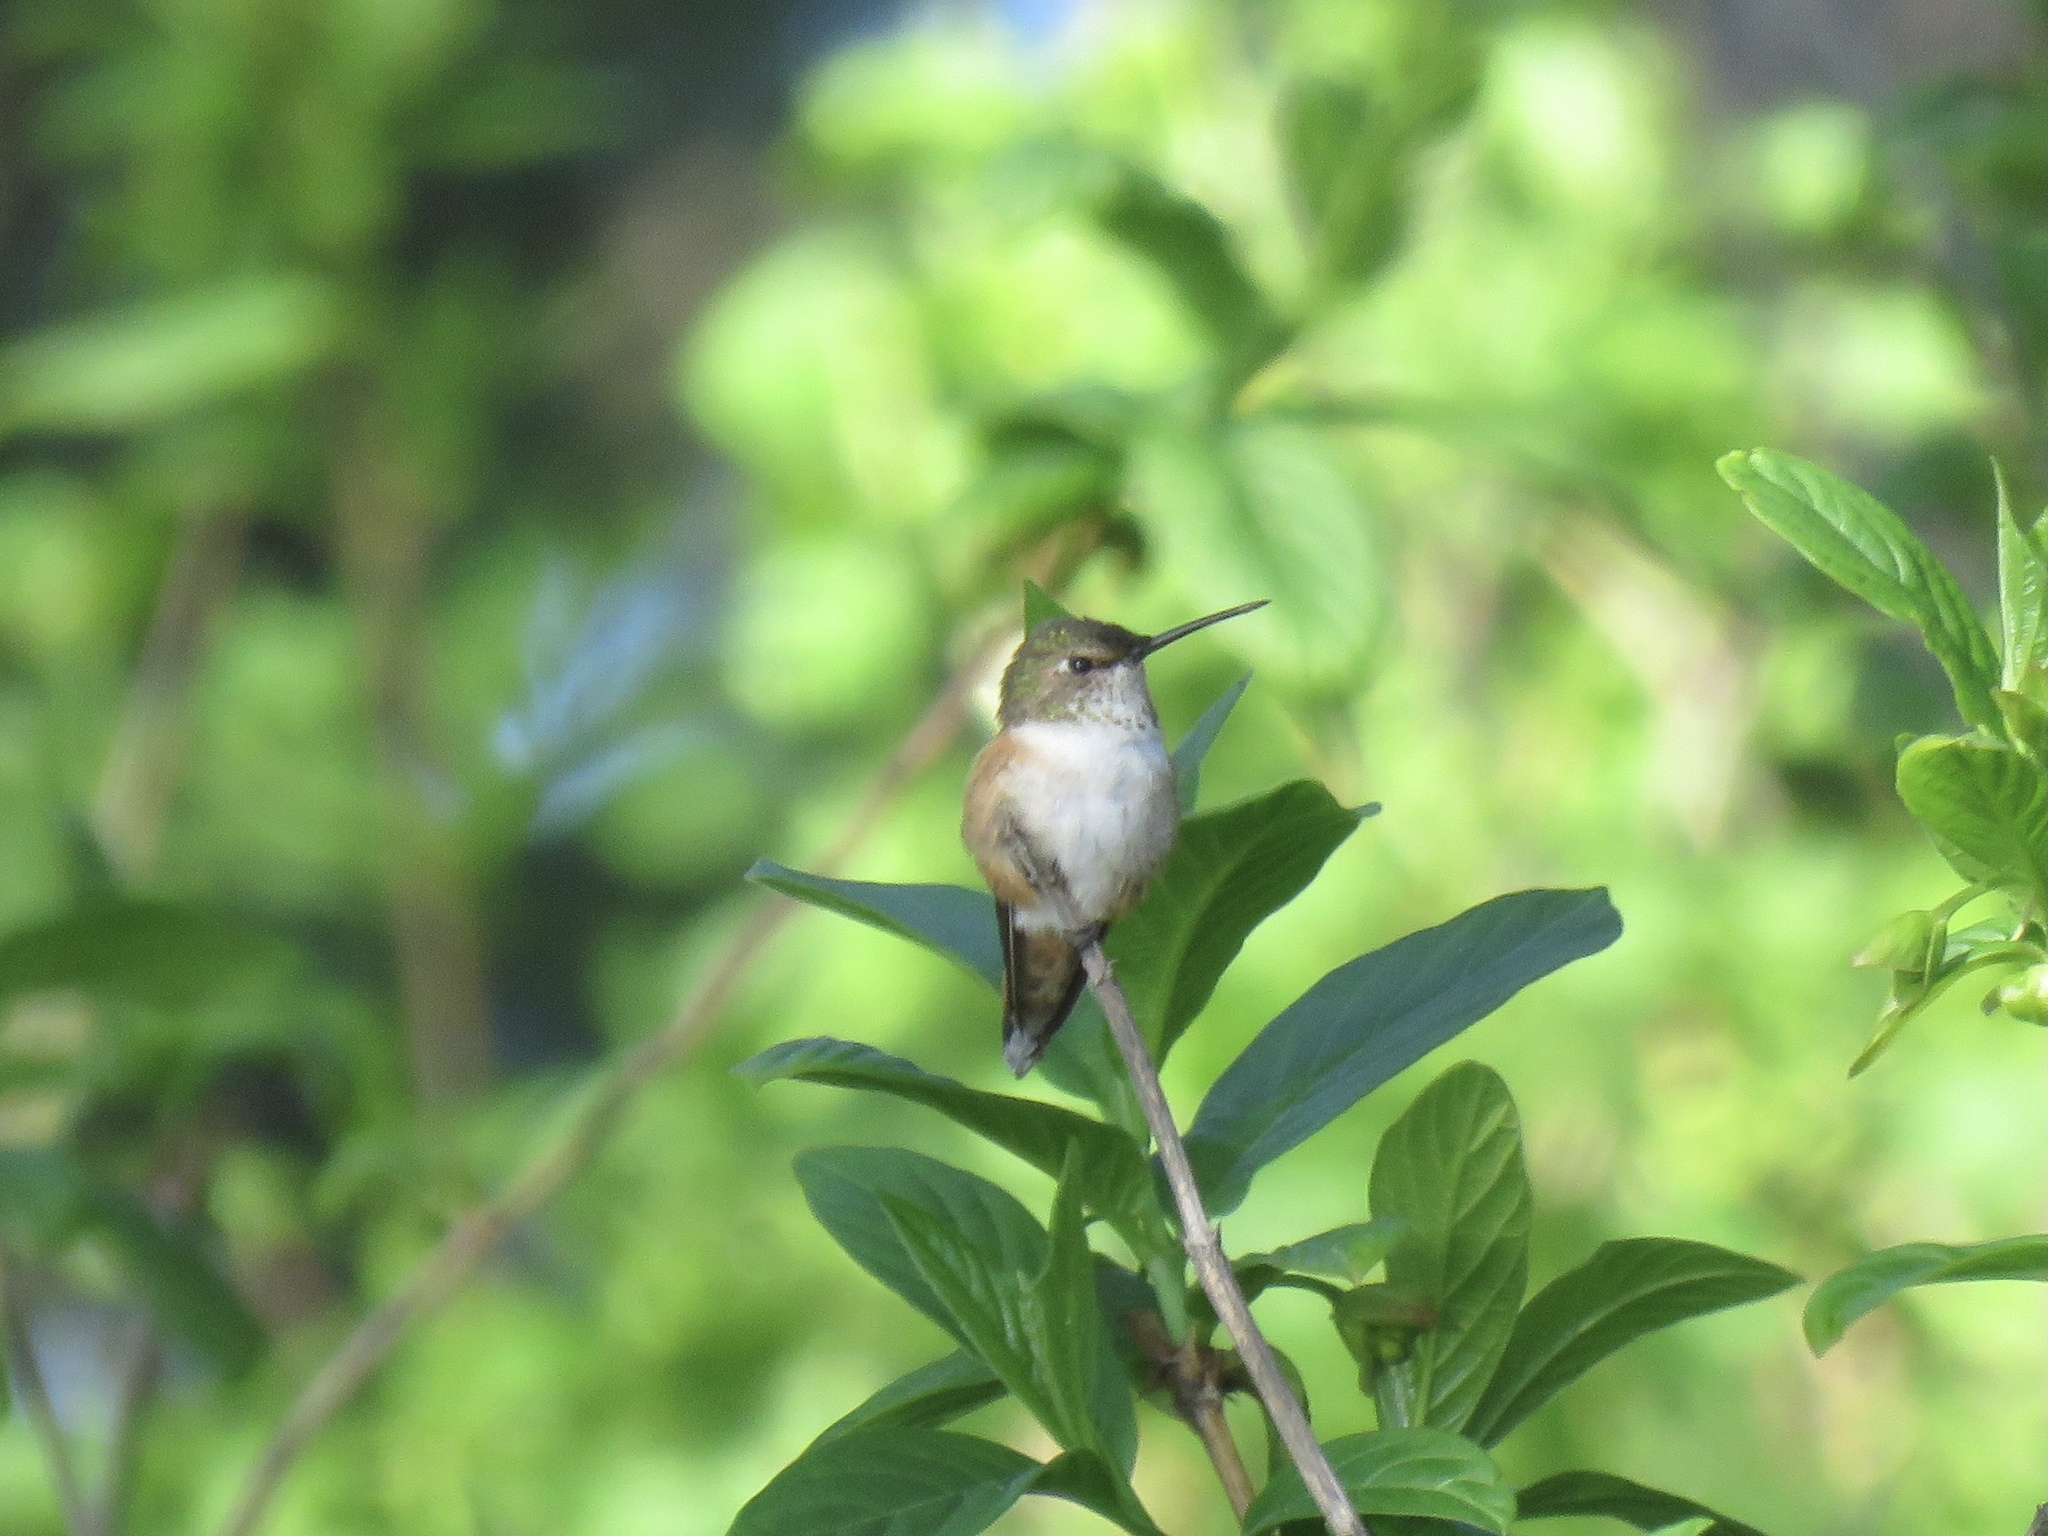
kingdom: Animalia
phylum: Chordata
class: Aves
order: Apodiformes
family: Trochilidae
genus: Selasphorus
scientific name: Selasphorus rufus
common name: Rufous hummingbird
